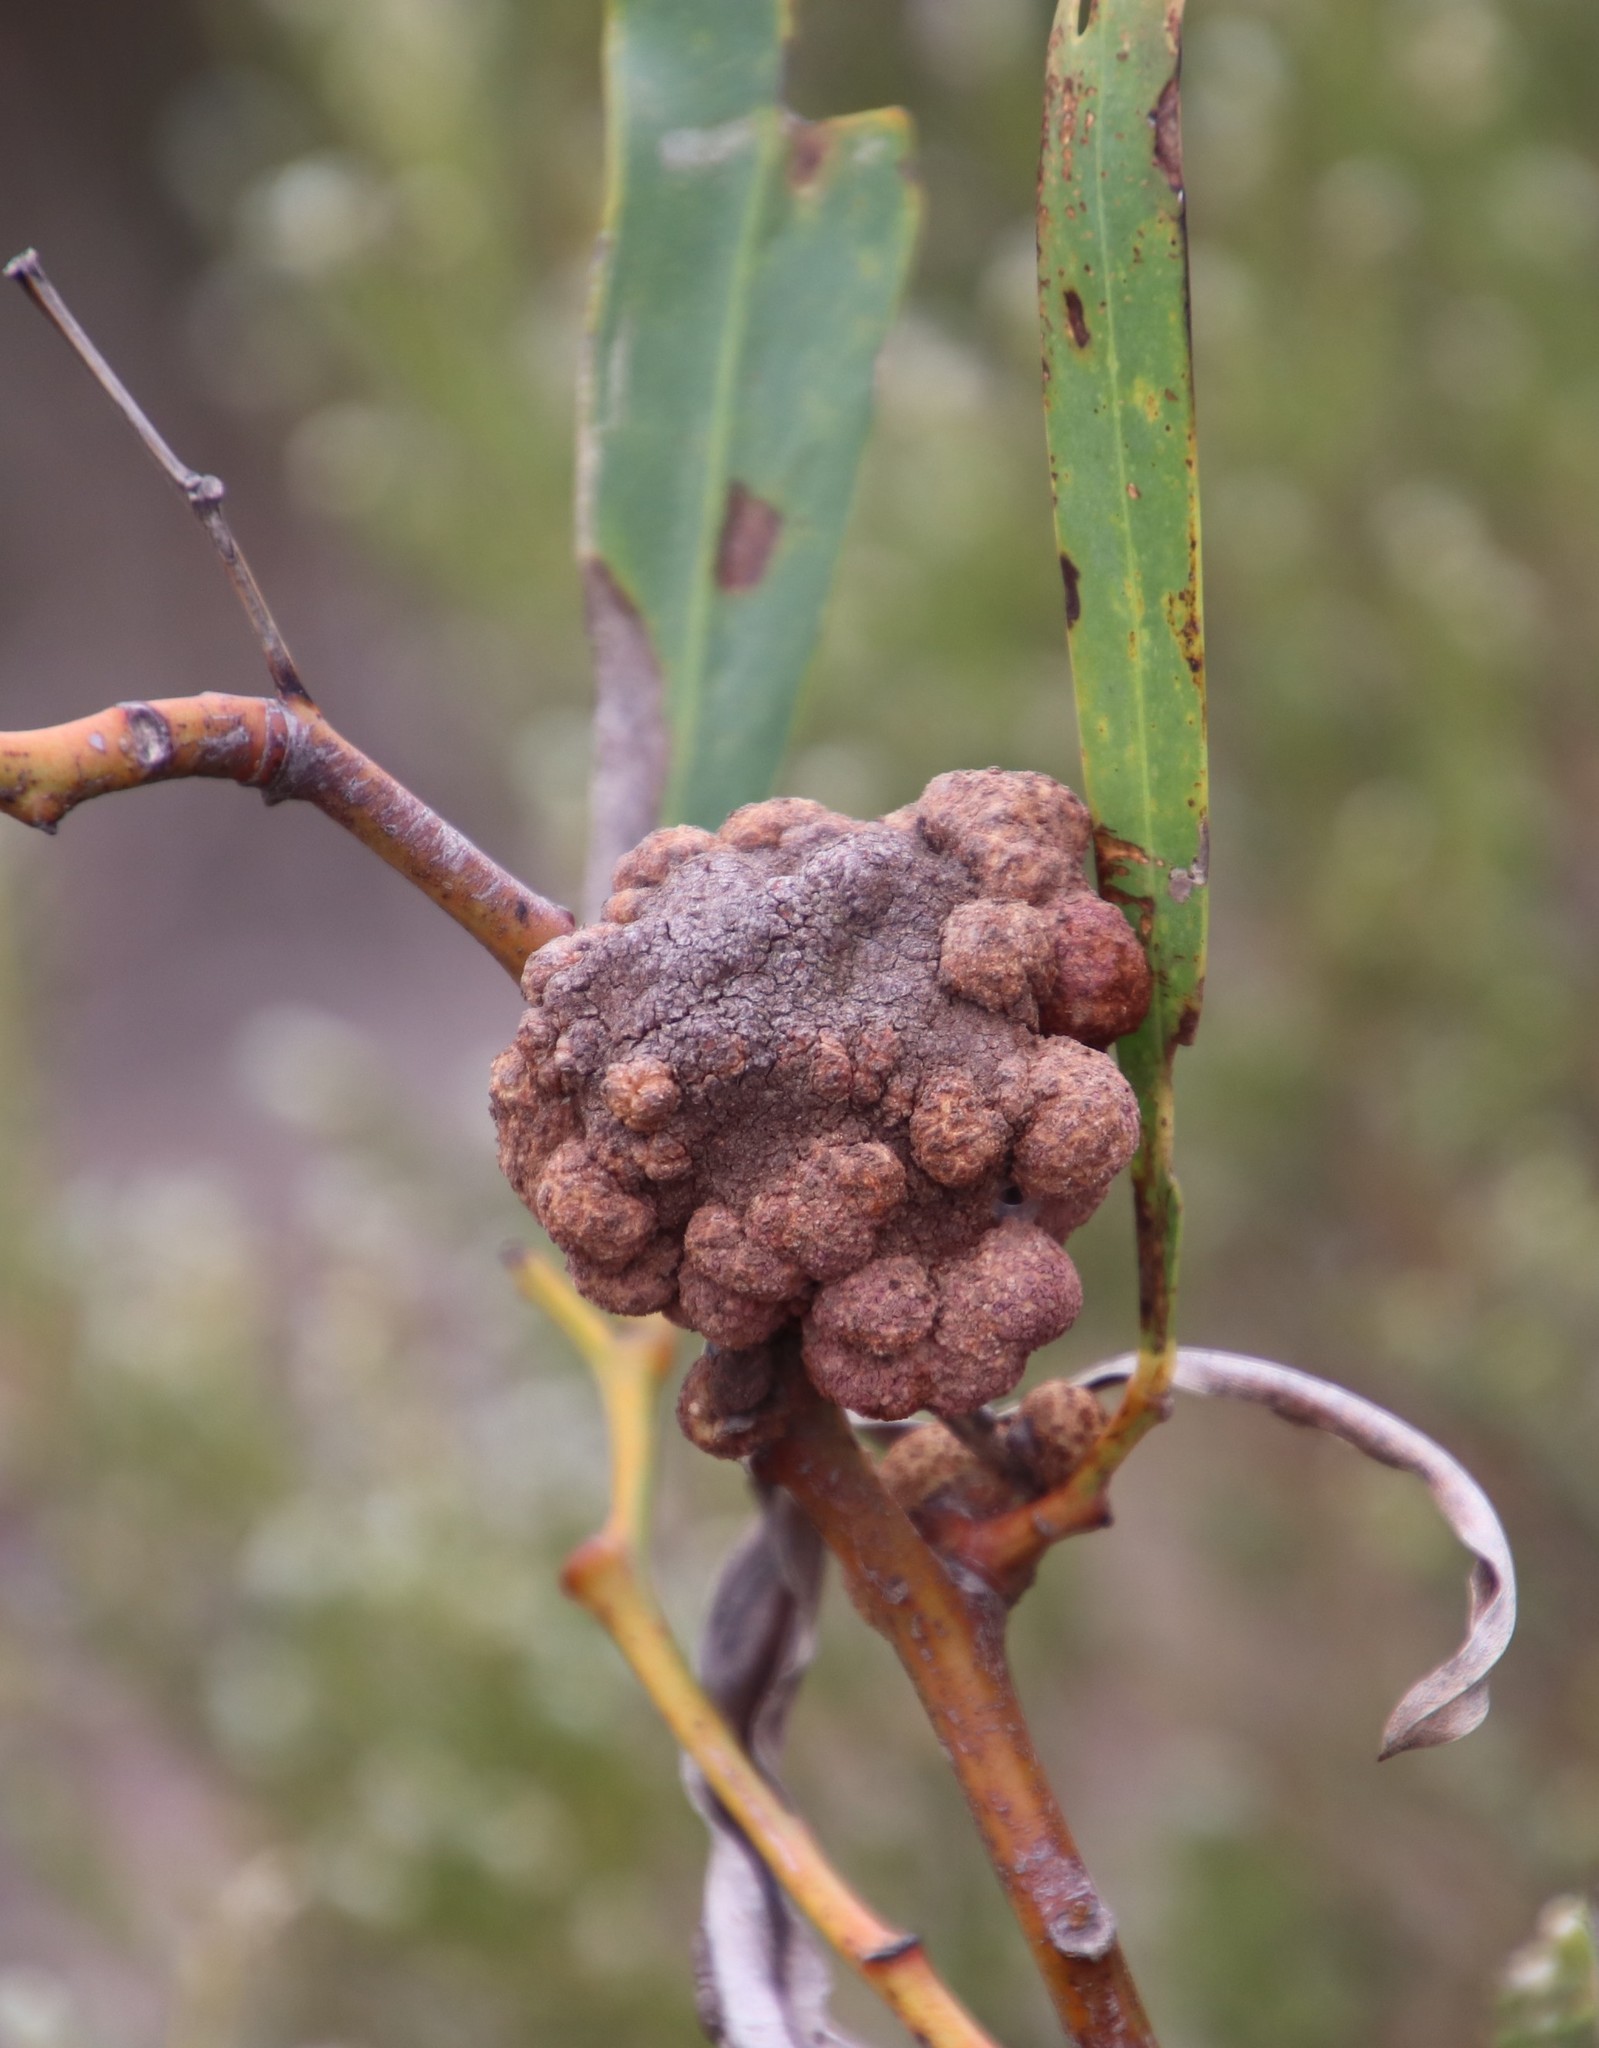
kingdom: Fungi
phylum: Basidiomycota
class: Pucciniomycetes
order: Pucciniales
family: Uromycladiaceae
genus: Uromycladium
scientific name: Uromycladium morrisii
